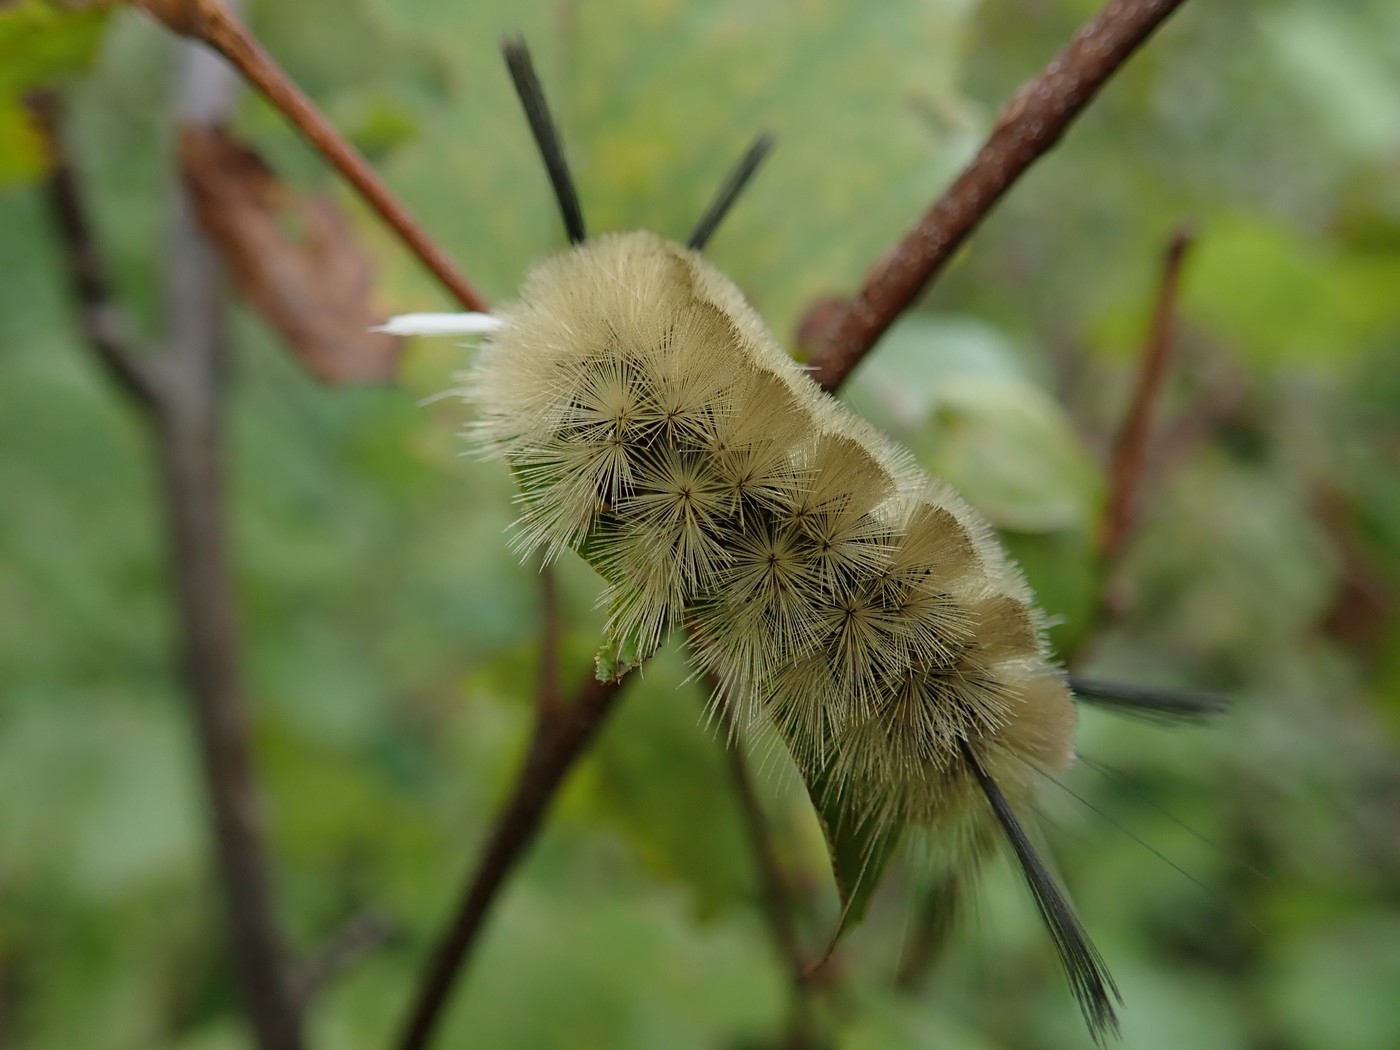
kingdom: Animalia
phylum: Arthropoda
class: Insecta
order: Lepidoptera
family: Erebidae
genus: Halysidota
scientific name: Halysidota tessellaris
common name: Banded tussock moth
